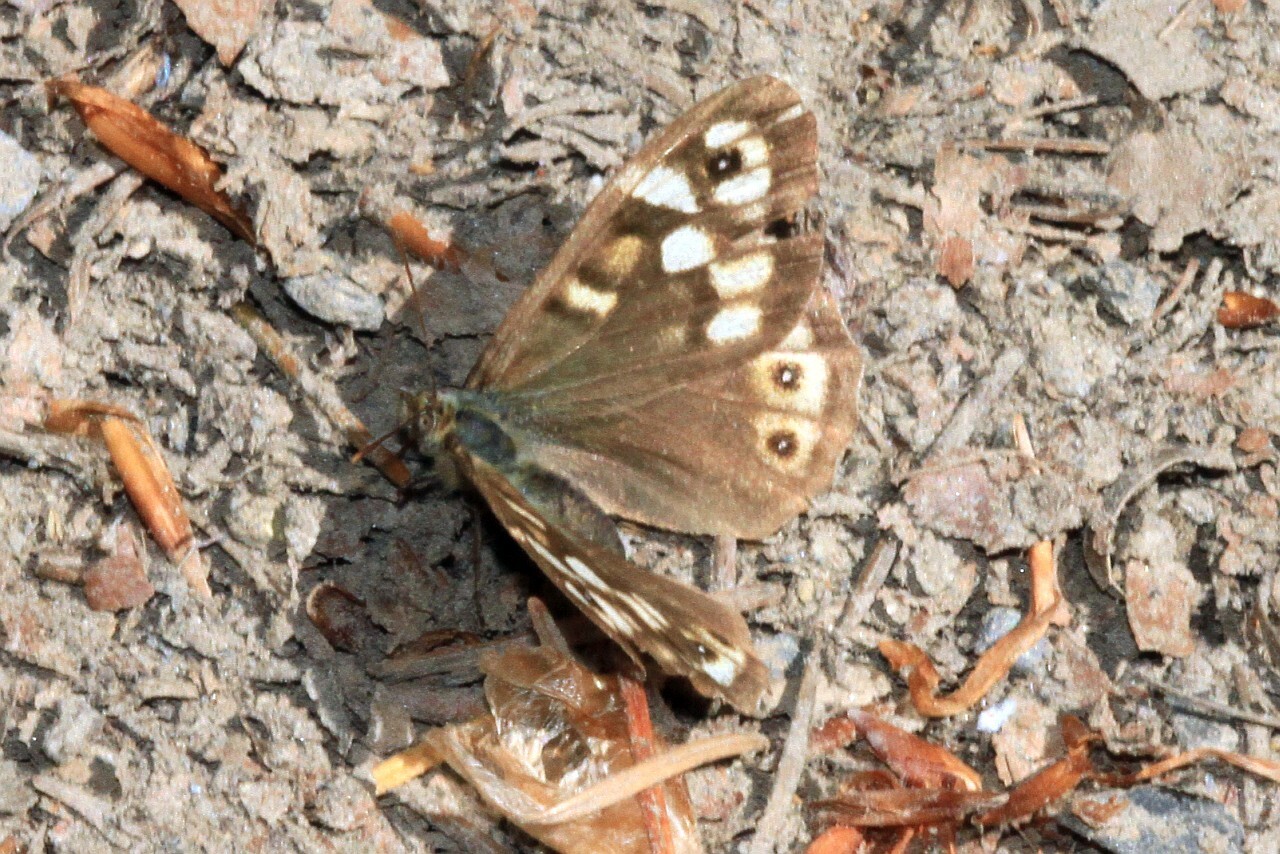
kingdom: Animalia
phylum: Arthropoda
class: Insecta
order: Lepidoptera
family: Nymphalidae
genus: Pararge
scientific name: Pararge aegeria
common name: Speckled wood
